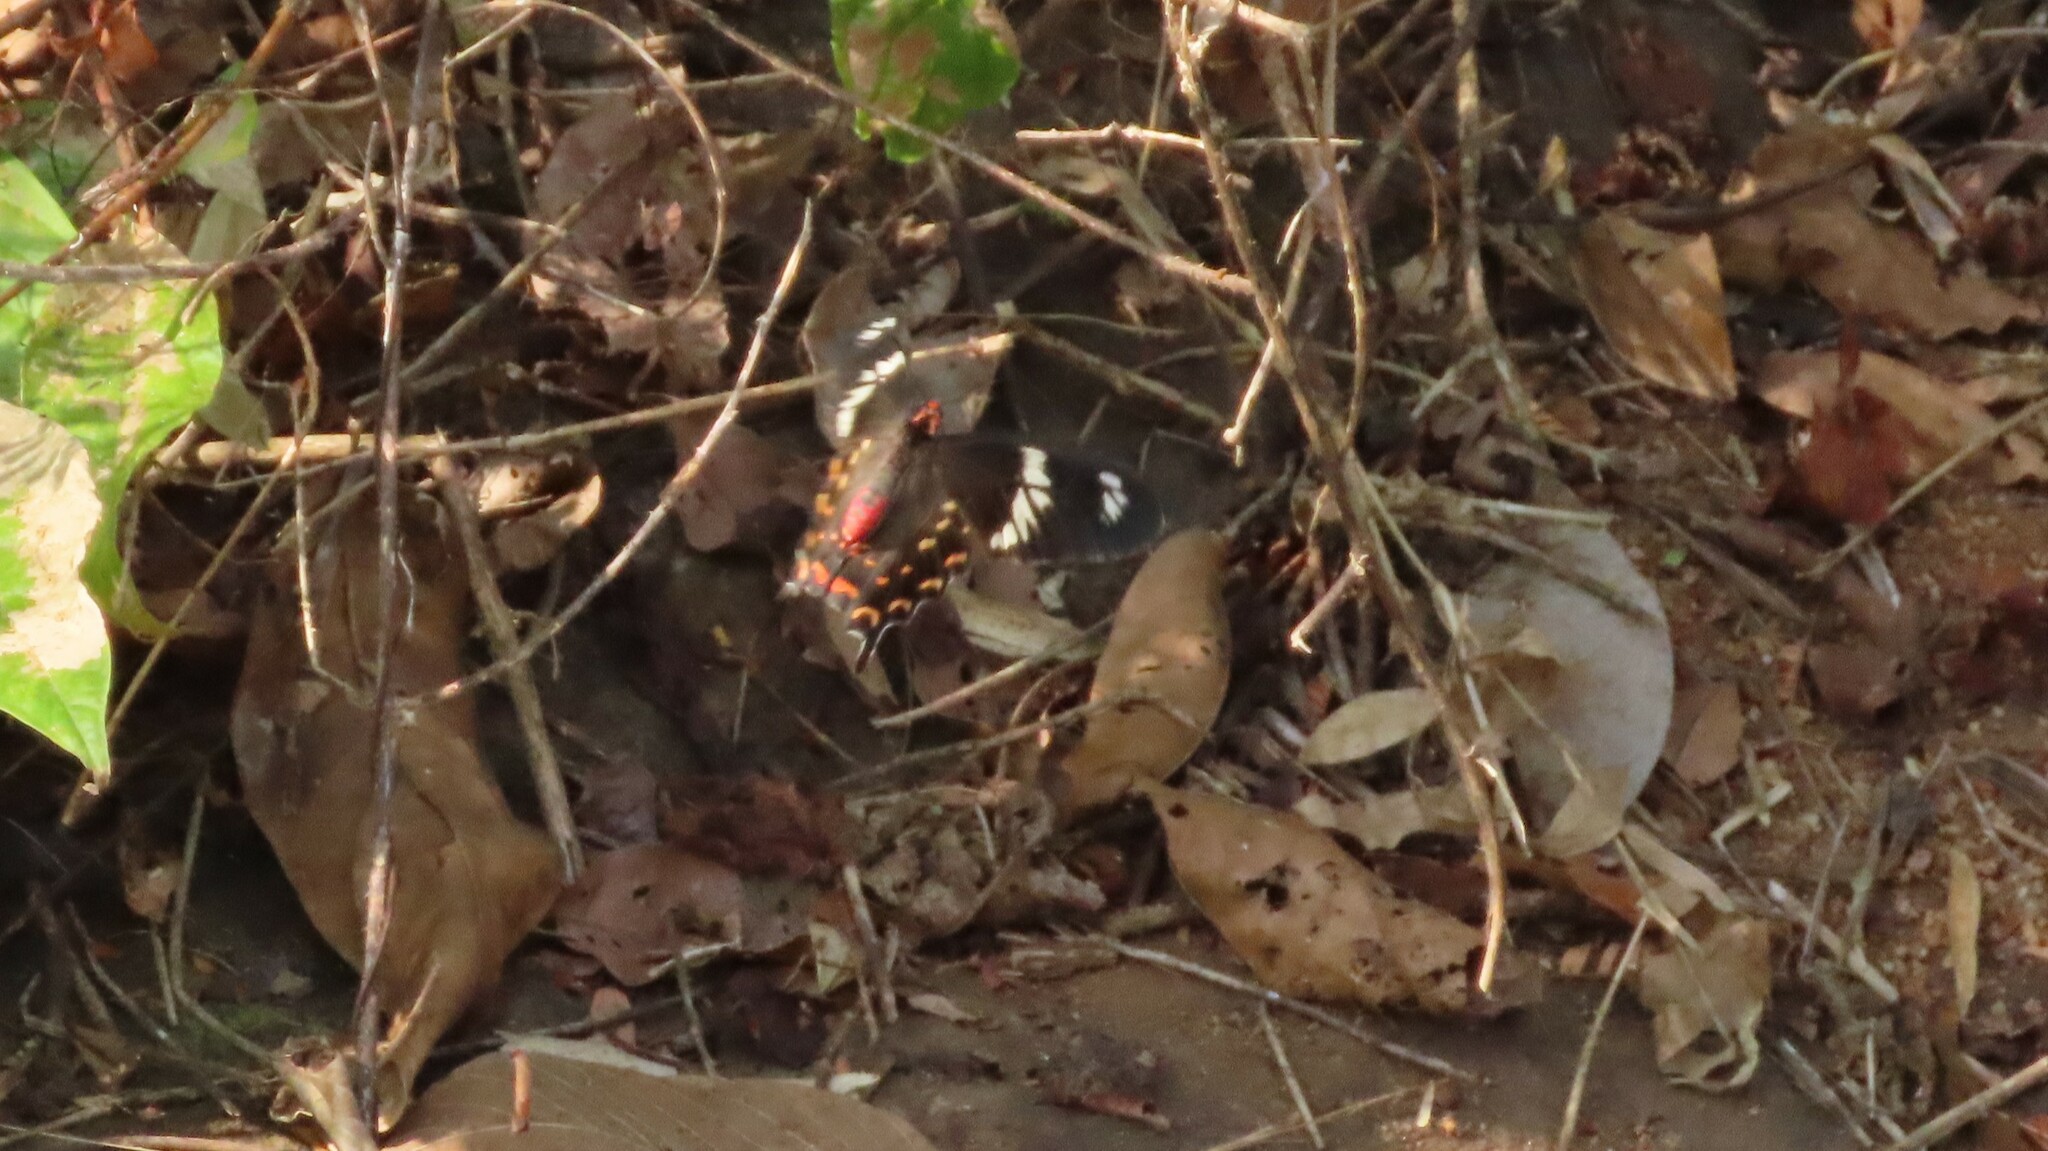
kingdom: Animalia
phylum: Arthropoda
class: Insecta
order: Lepidoptera
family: Papilionidae
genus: Pachliopta
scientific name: Pachliopta hector
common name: Crimson rose
